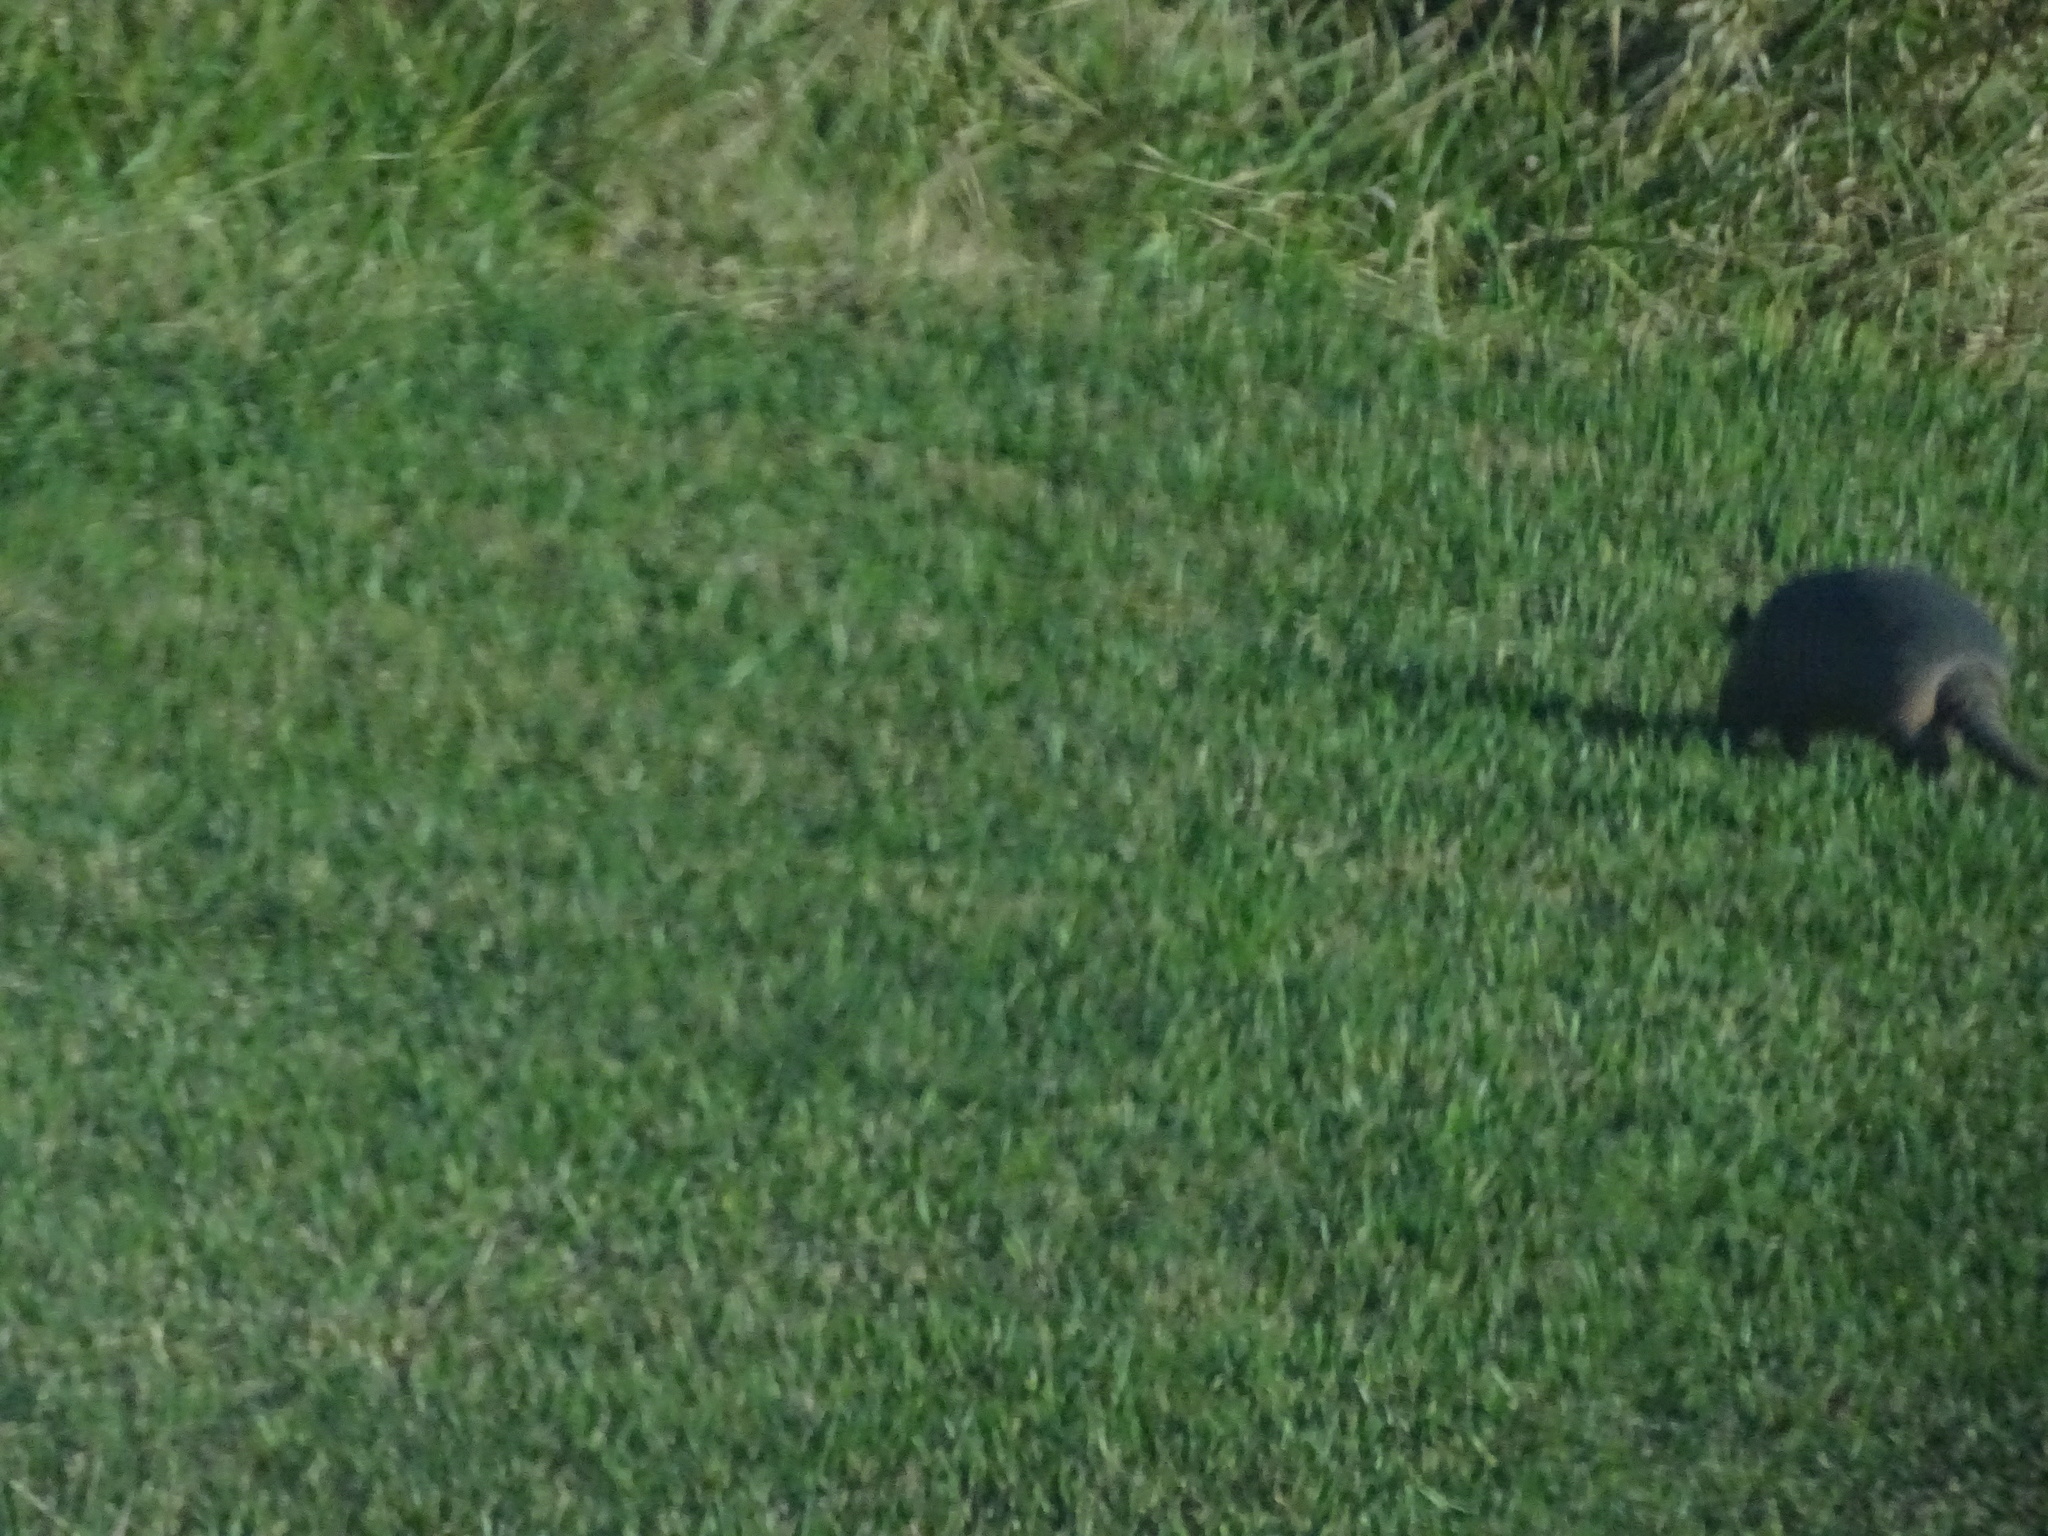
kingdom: Animalia
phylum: Chordata
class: Mammalia
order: Cingulata
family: Dasypodidae
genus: Dasypus
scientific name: Dasypus novemcinctus
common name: Nine-banded armadillo
